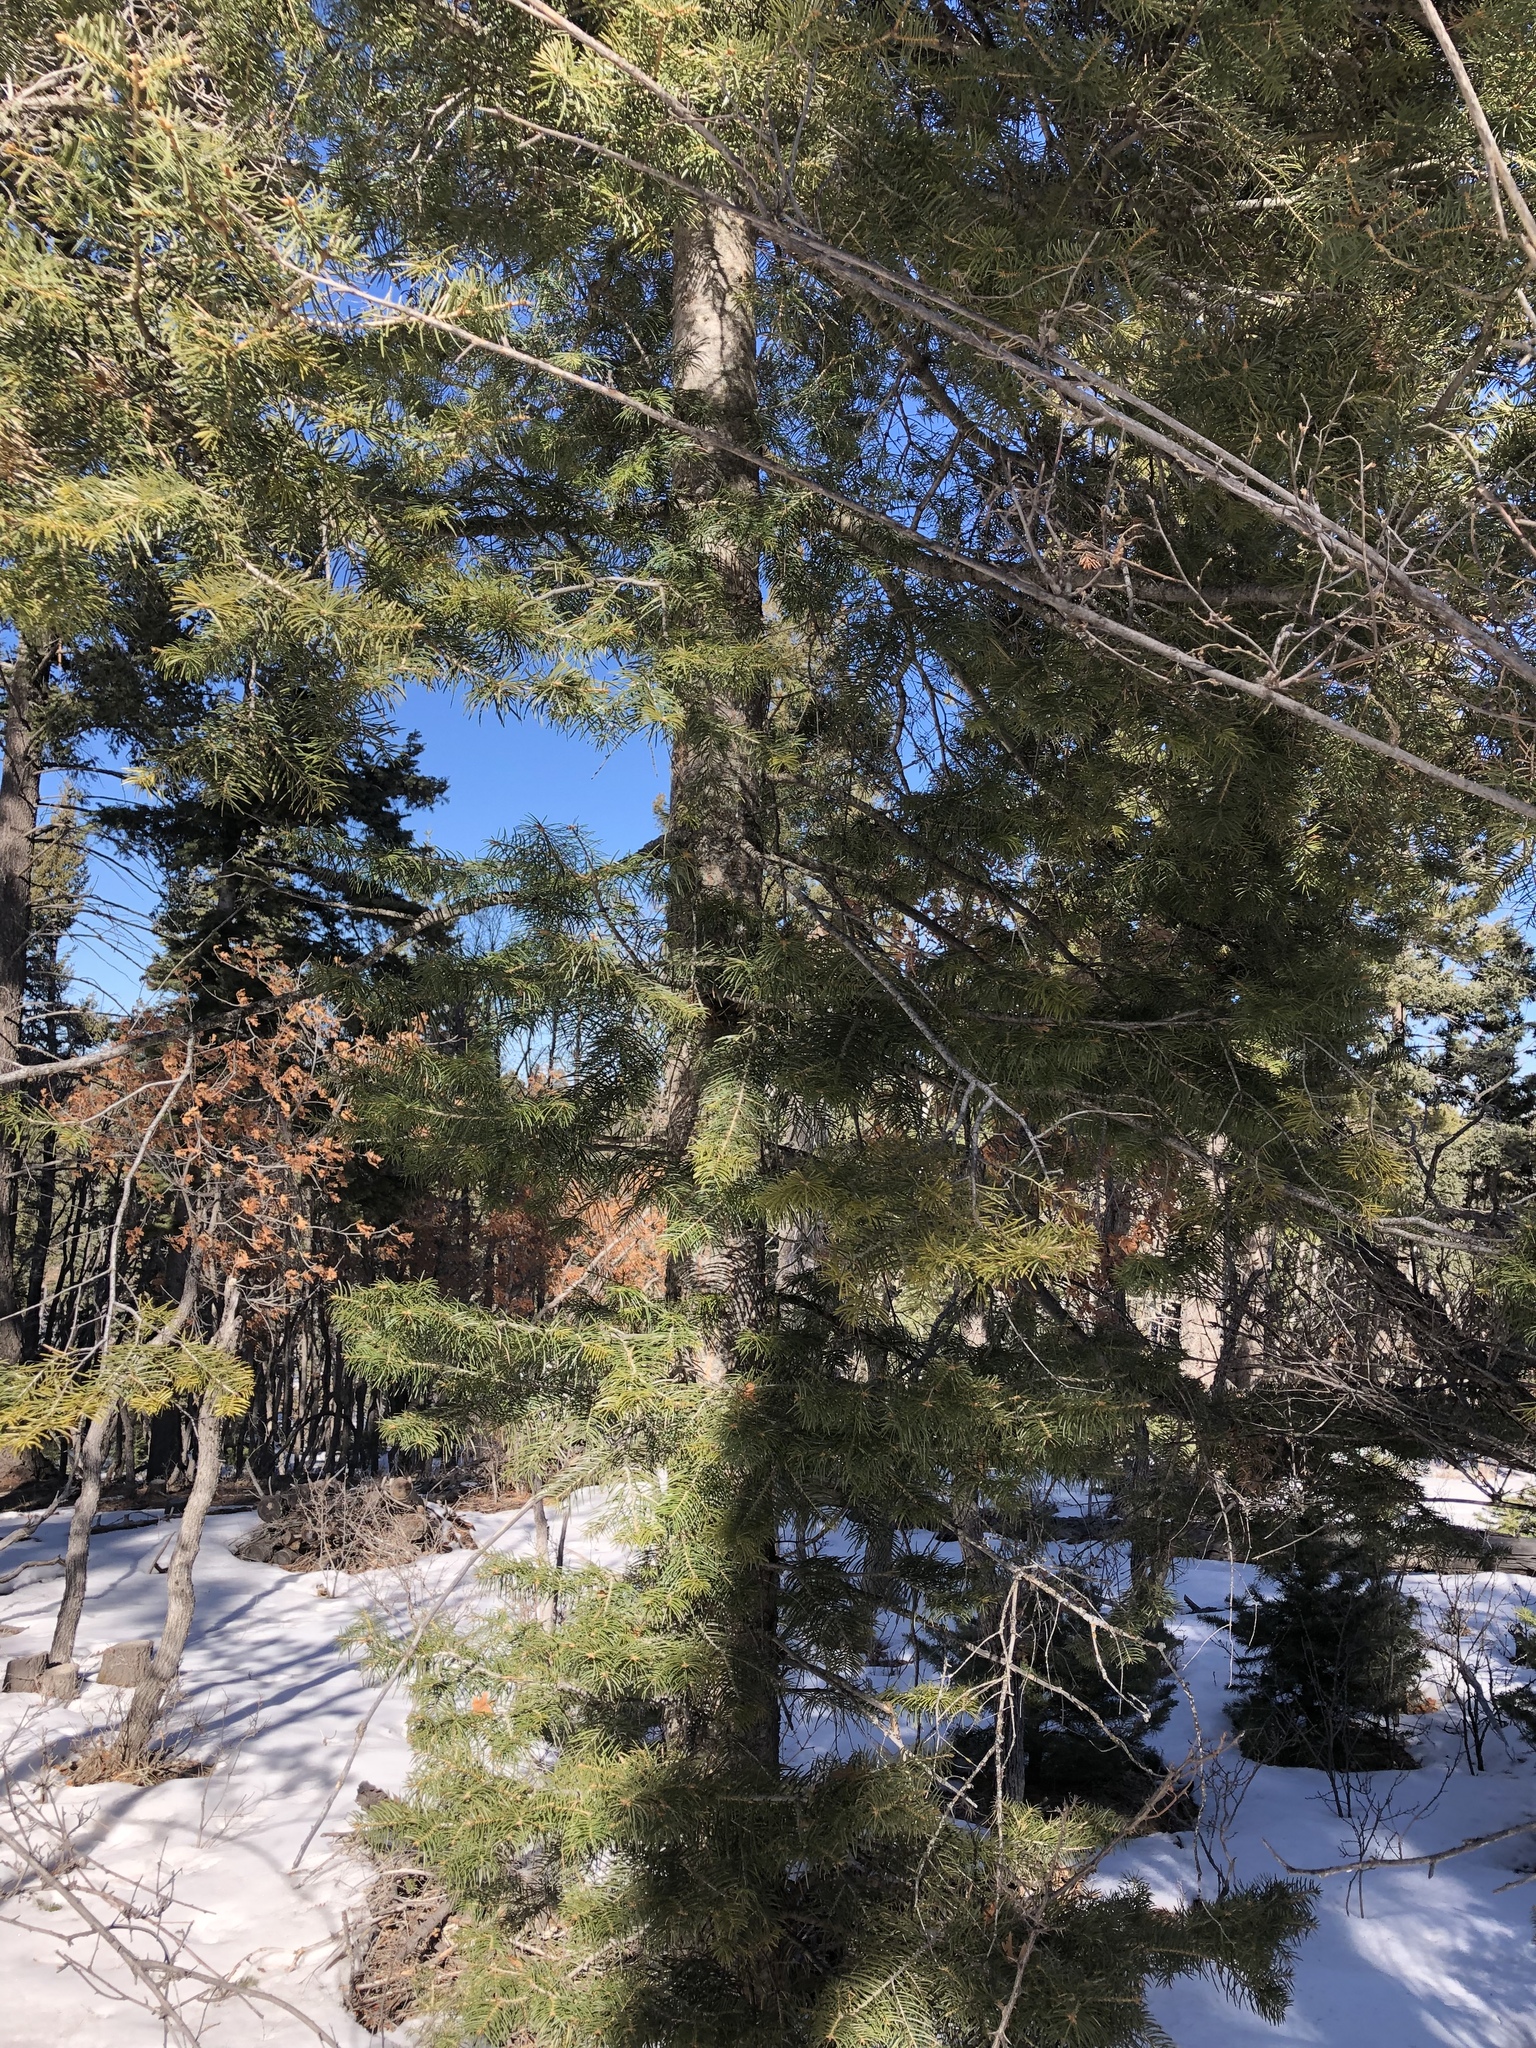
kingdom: Plantae
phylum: Tracheophyta
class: Pinopsida
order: Pinales
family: Pinaceae
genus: Abies
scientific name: Abies concolor
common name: Colorado fir
